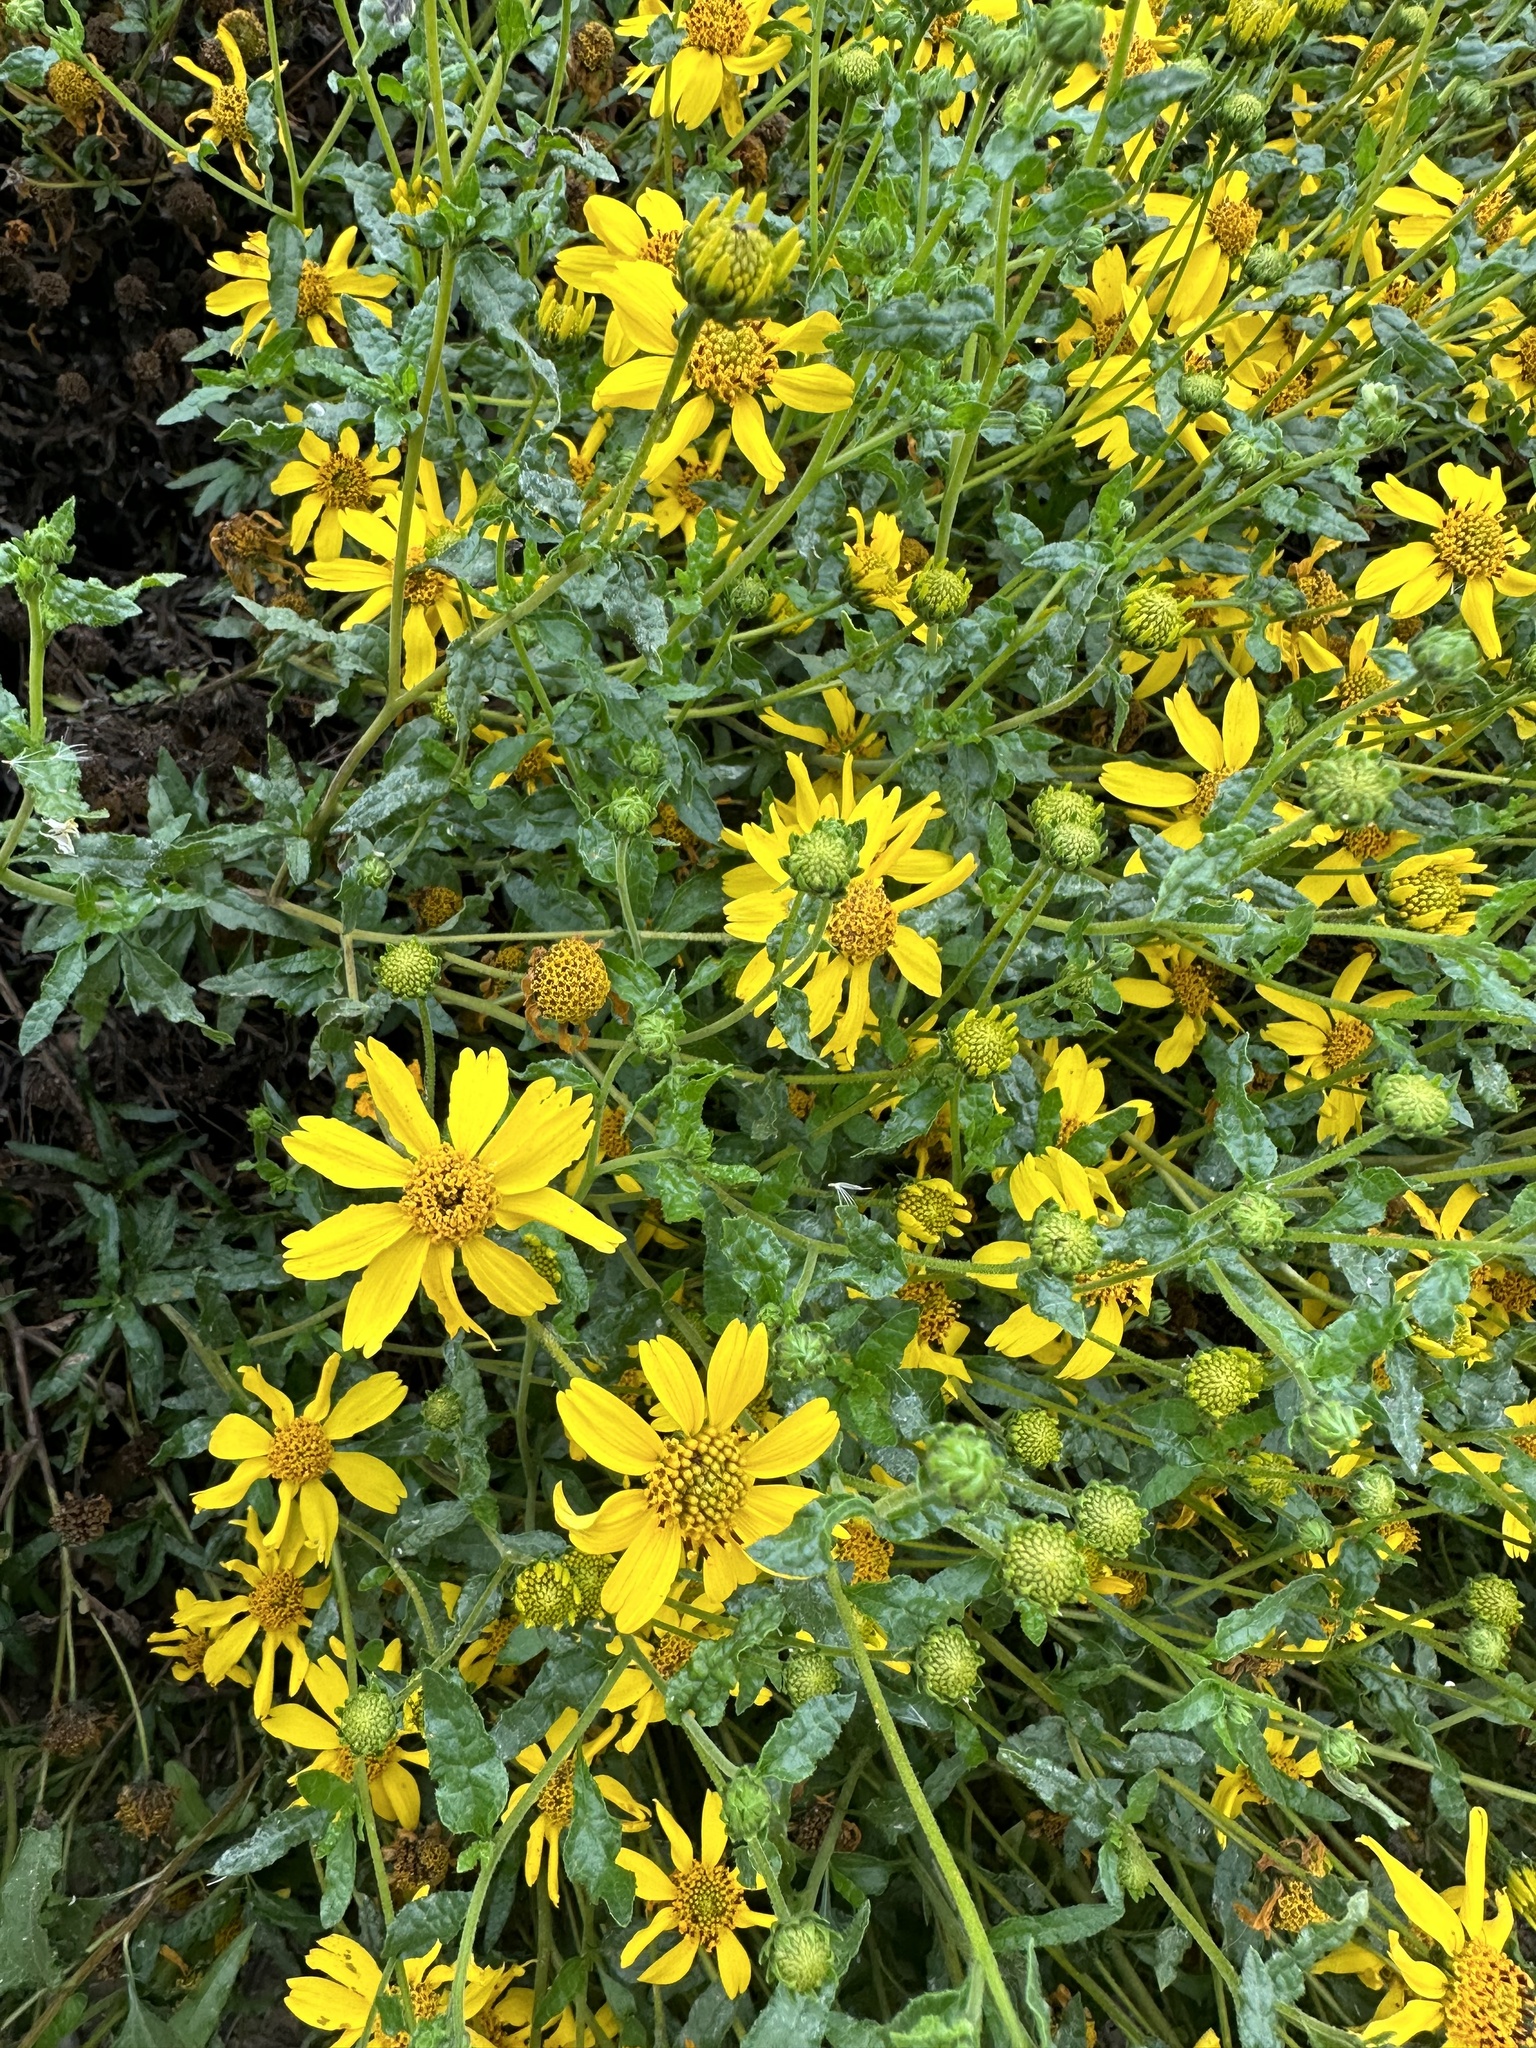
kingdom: Plantae
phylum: Tracheophyta
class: Magnoliopsida
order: Asterales
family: Asteraceae
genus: Bahiopsis
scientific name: Bahiopsis laciniata
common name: San diego county viguiera
